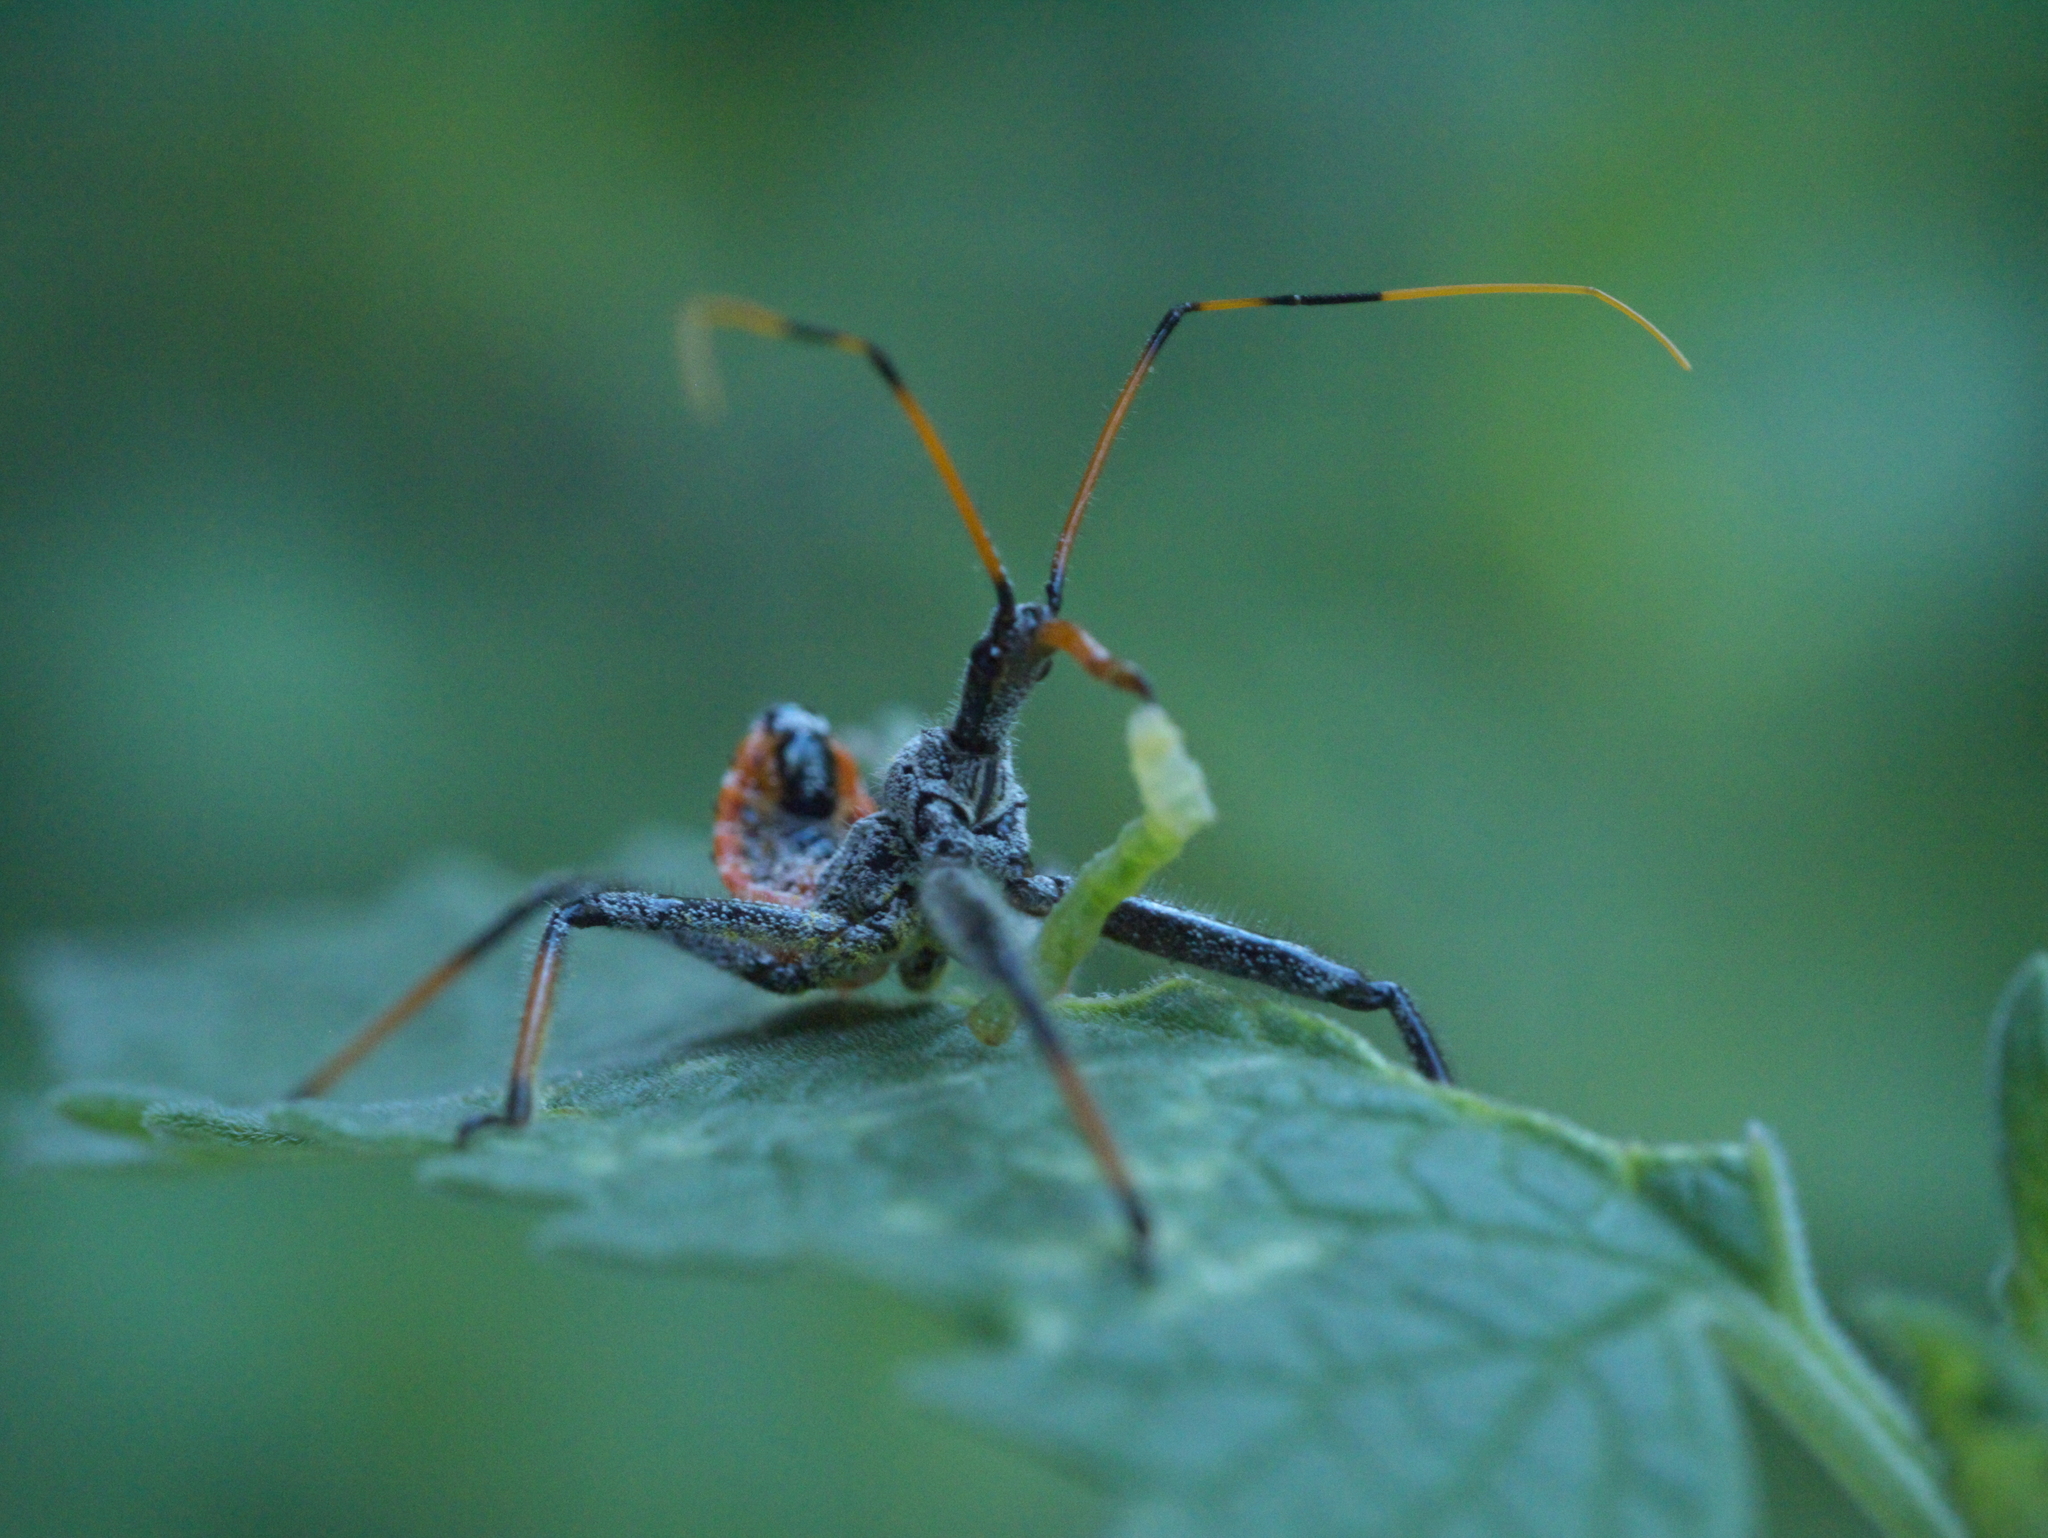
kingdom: Animalia
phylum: Arthropoda
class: Insecta
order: Hemiptera
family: Reduviidae
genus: Arilus
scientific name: Arilus cristatus
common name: North american wheel bug
